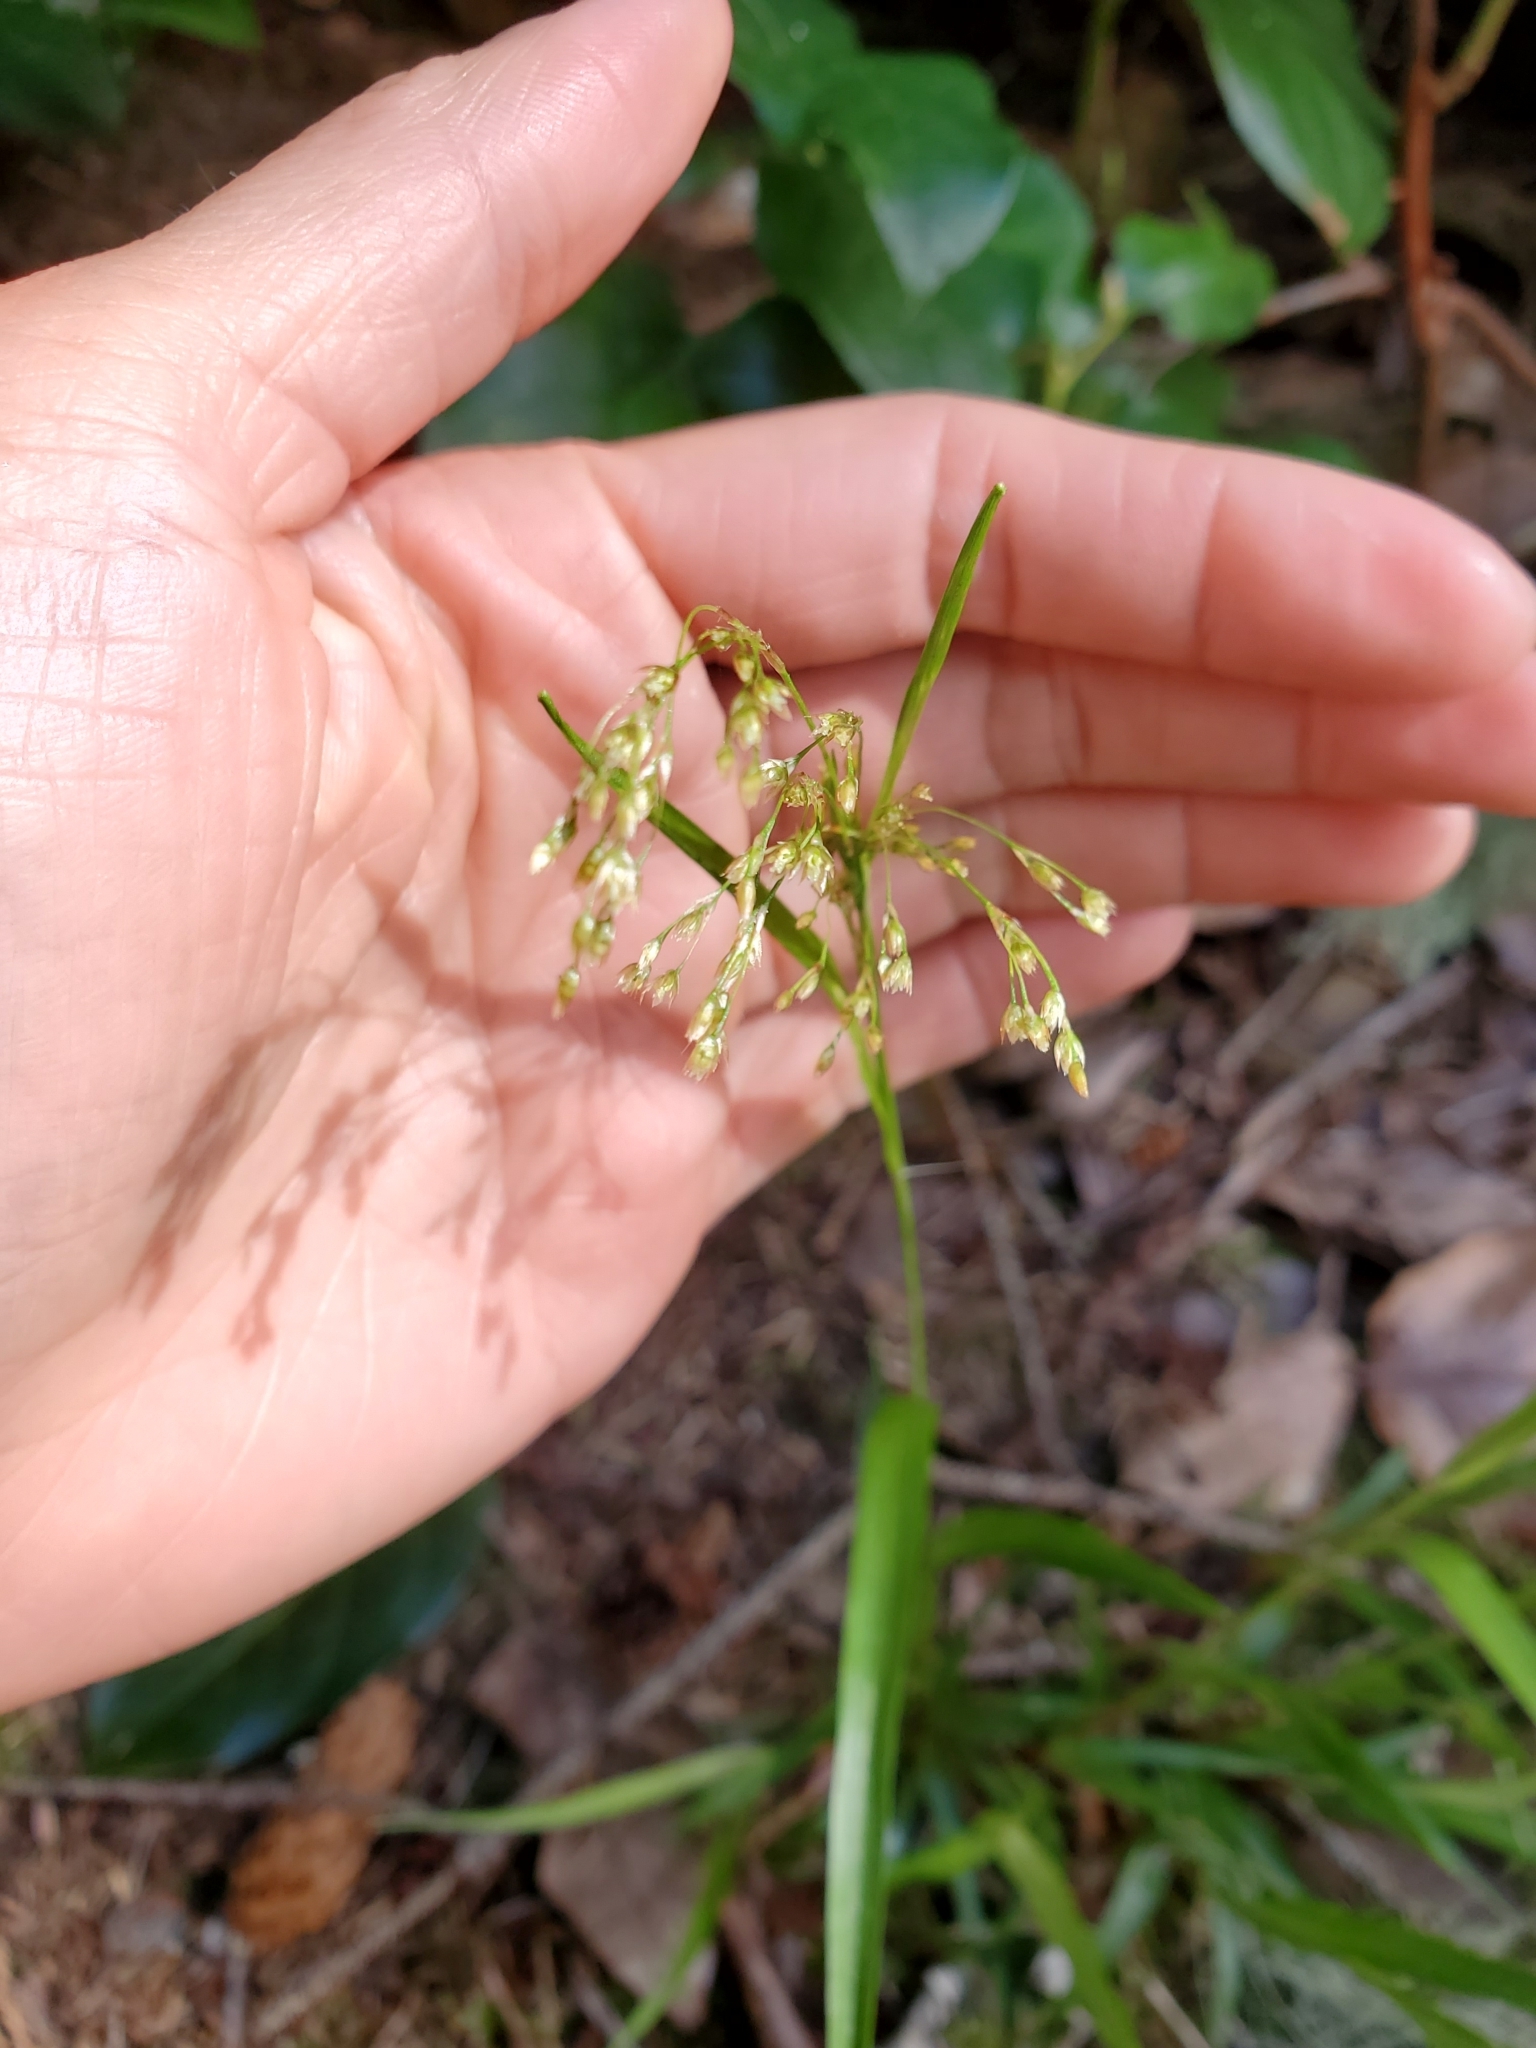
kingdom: Plantae
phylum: Tracheophyta
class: Liliopsida
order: Poales
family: Juncaceae
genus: Luzula
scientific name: Luzula parviflora
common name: Millet woodrush
